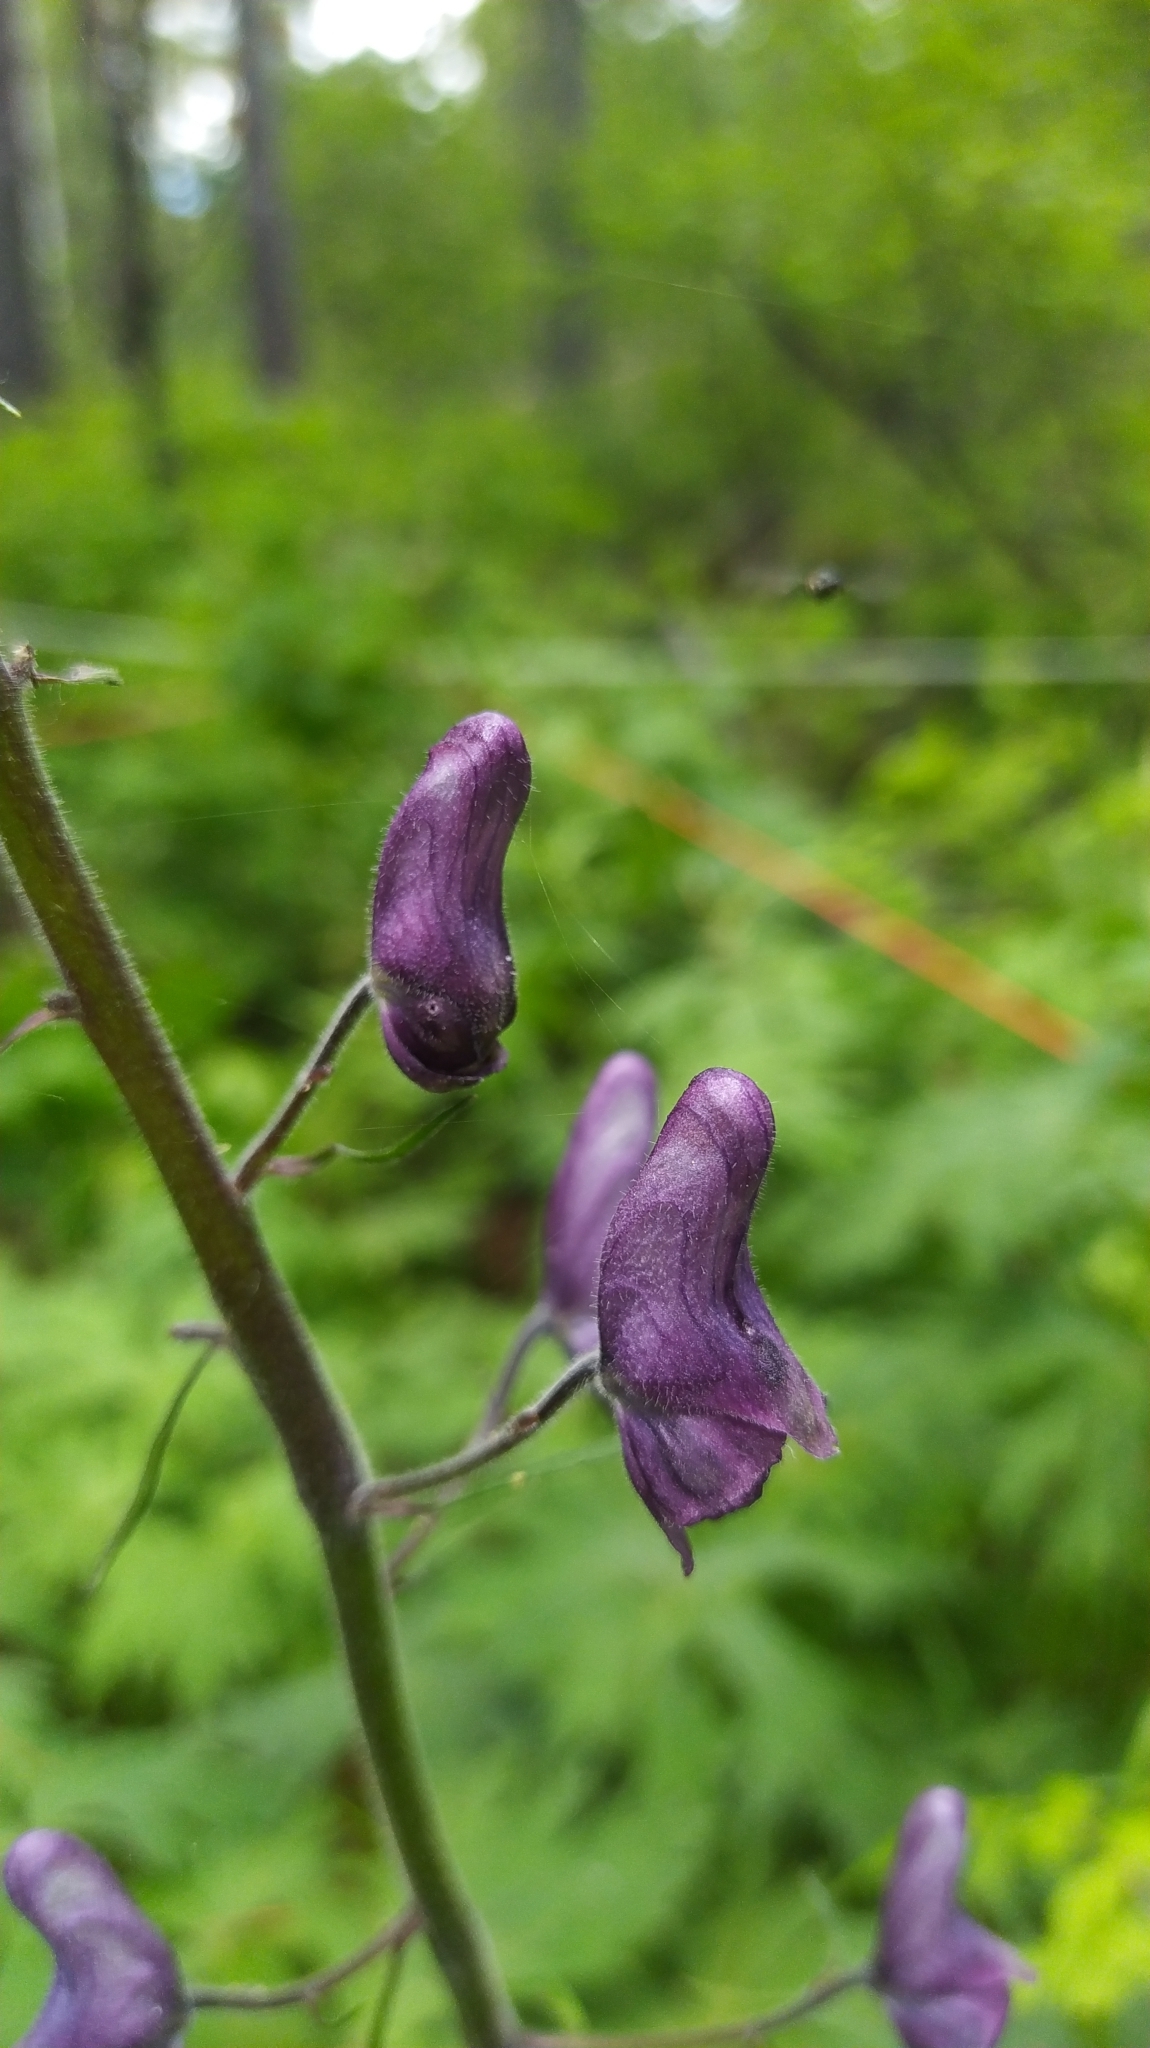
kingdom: Plantae
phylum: Tracheophyta
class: Magnoliopsida
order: Ranunculales
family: Ranunculaceae
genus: Aconitum
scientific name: Aconitum septentrionale
